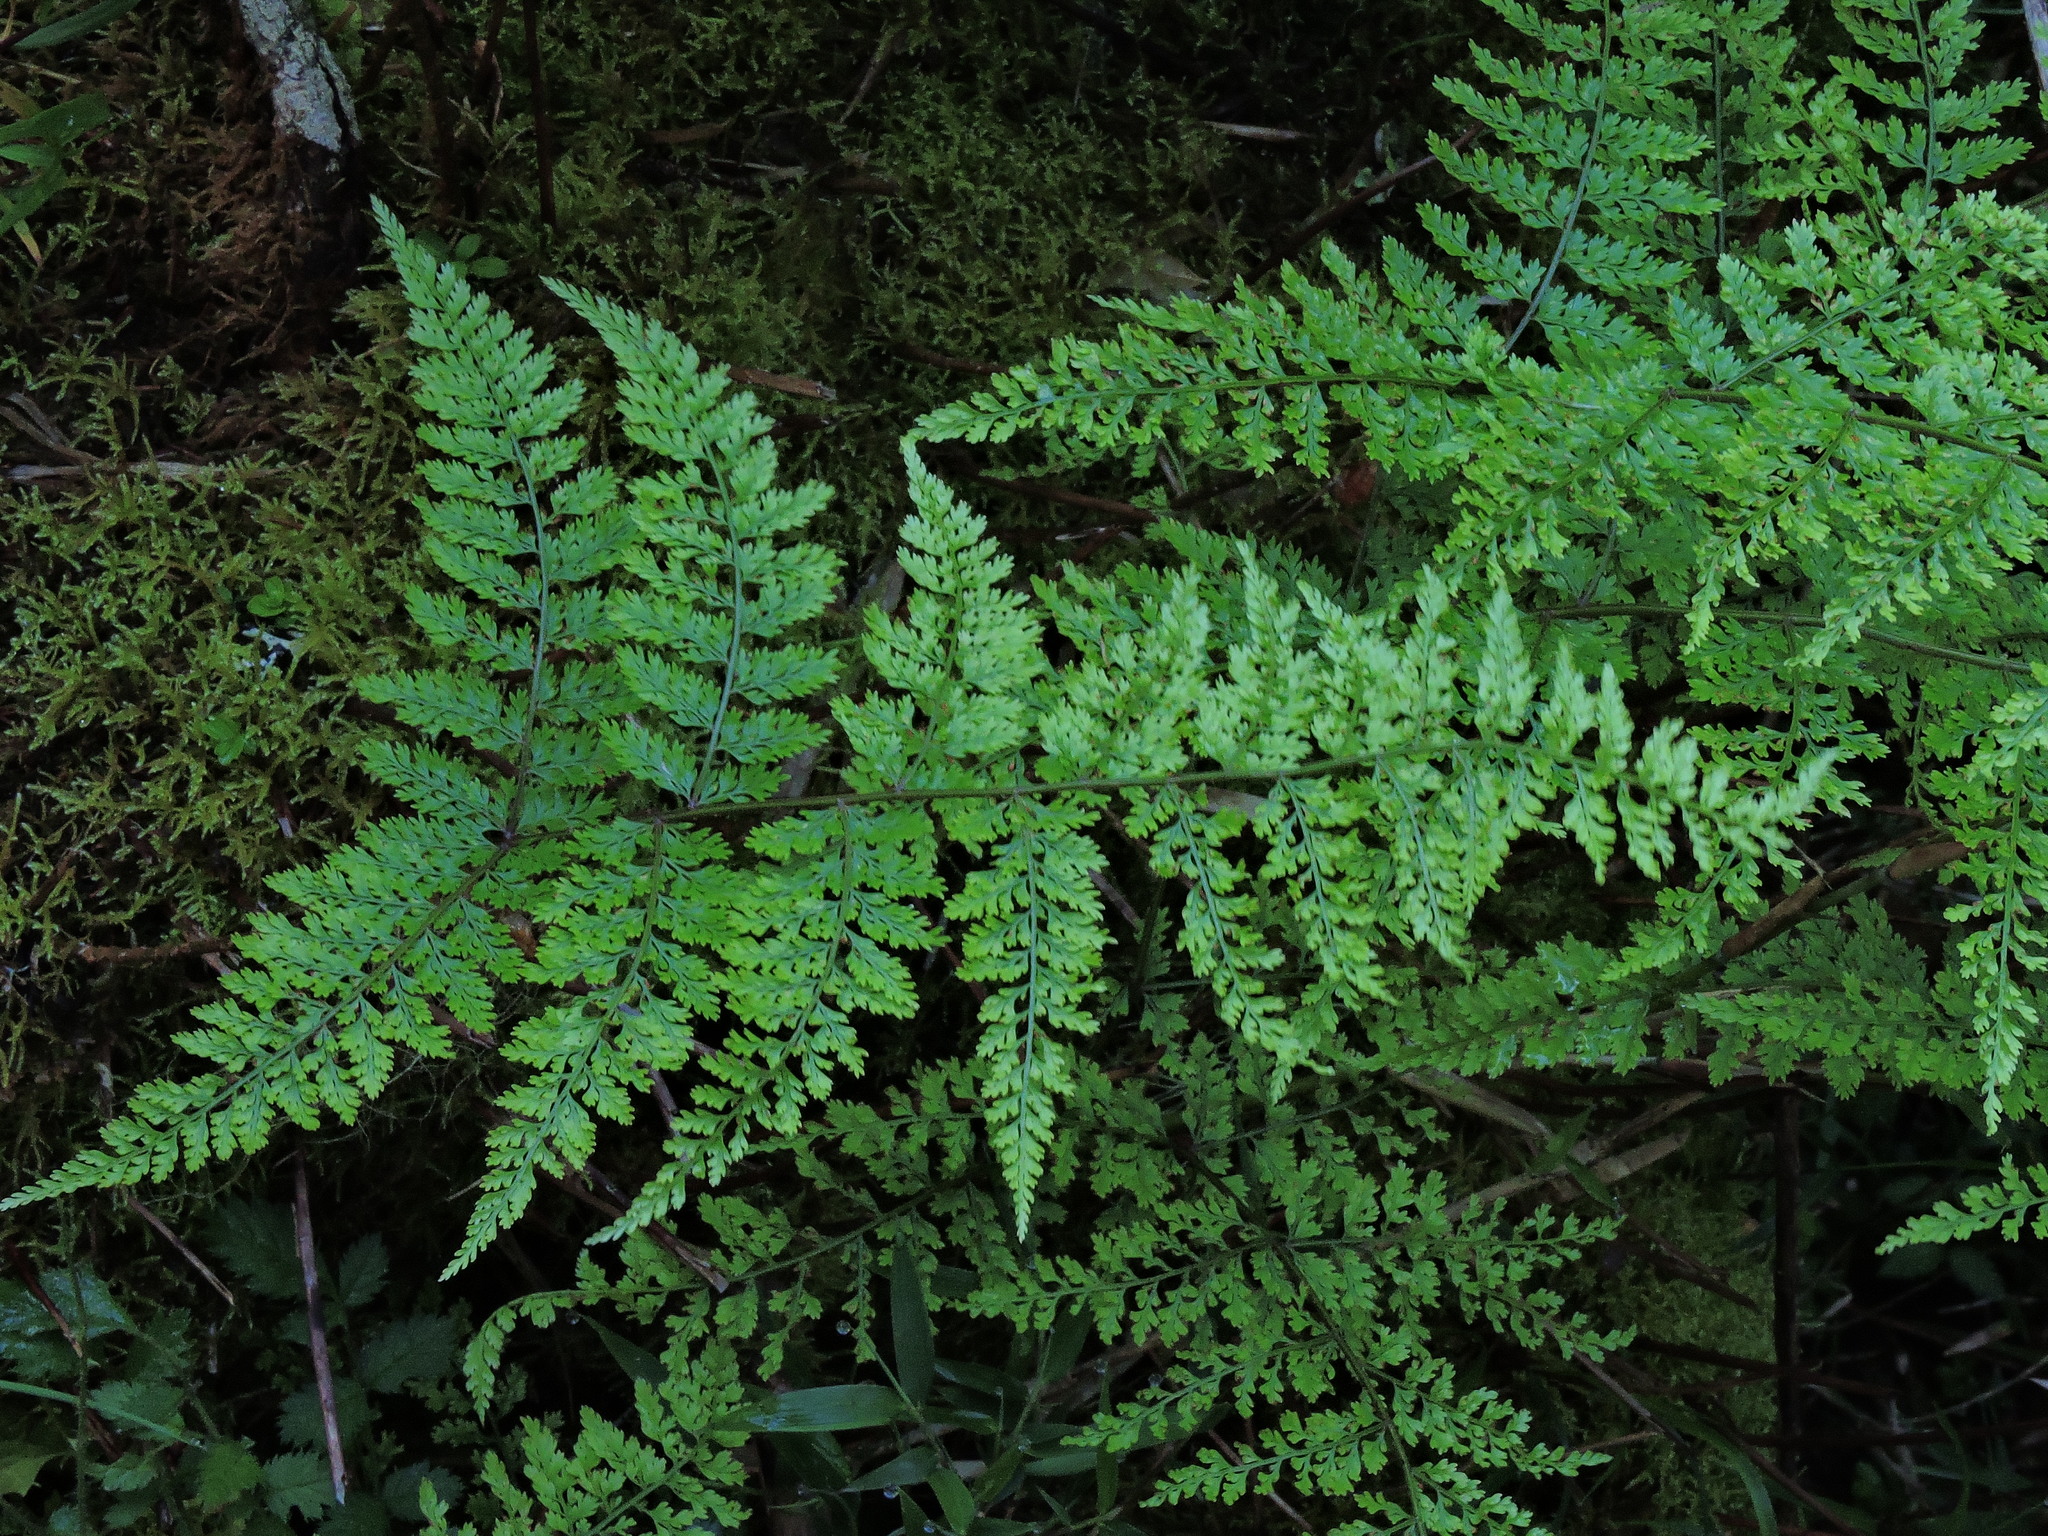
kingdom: Plantae
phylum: Tracheophyta
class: Polypodiopsida
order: Polypodiales
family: Davalliaceae
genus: Davallia
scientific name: Davallia perdurans
